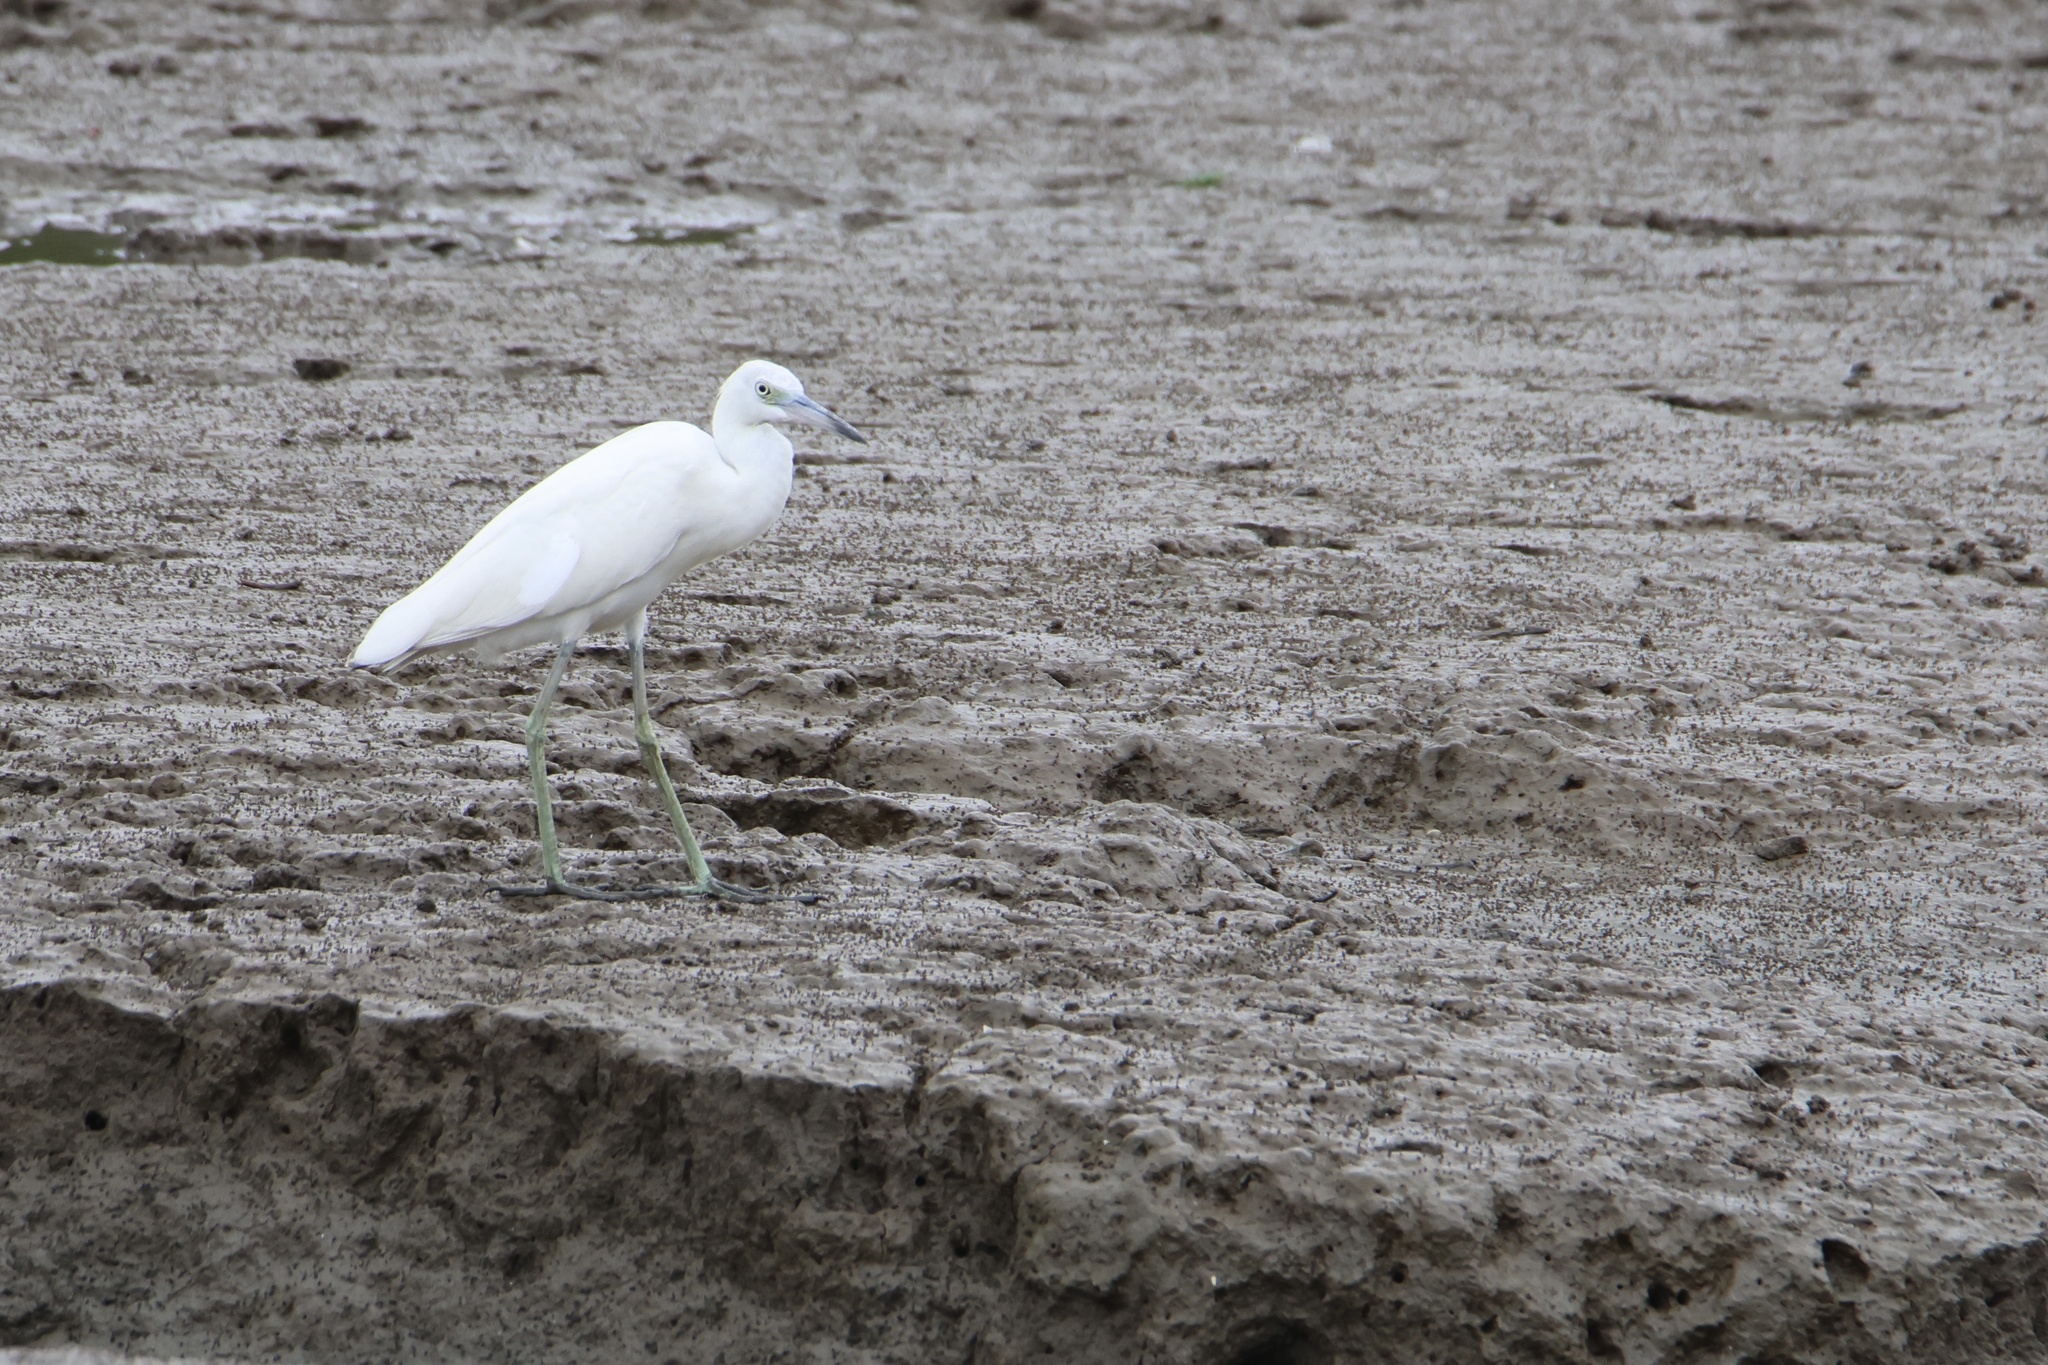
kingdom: Animalia
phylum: Chordata
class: Aves
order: Pelecaniformes
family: Ardeidae
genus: Egretta
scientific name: Egretta caerulea
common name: Little blue heron
